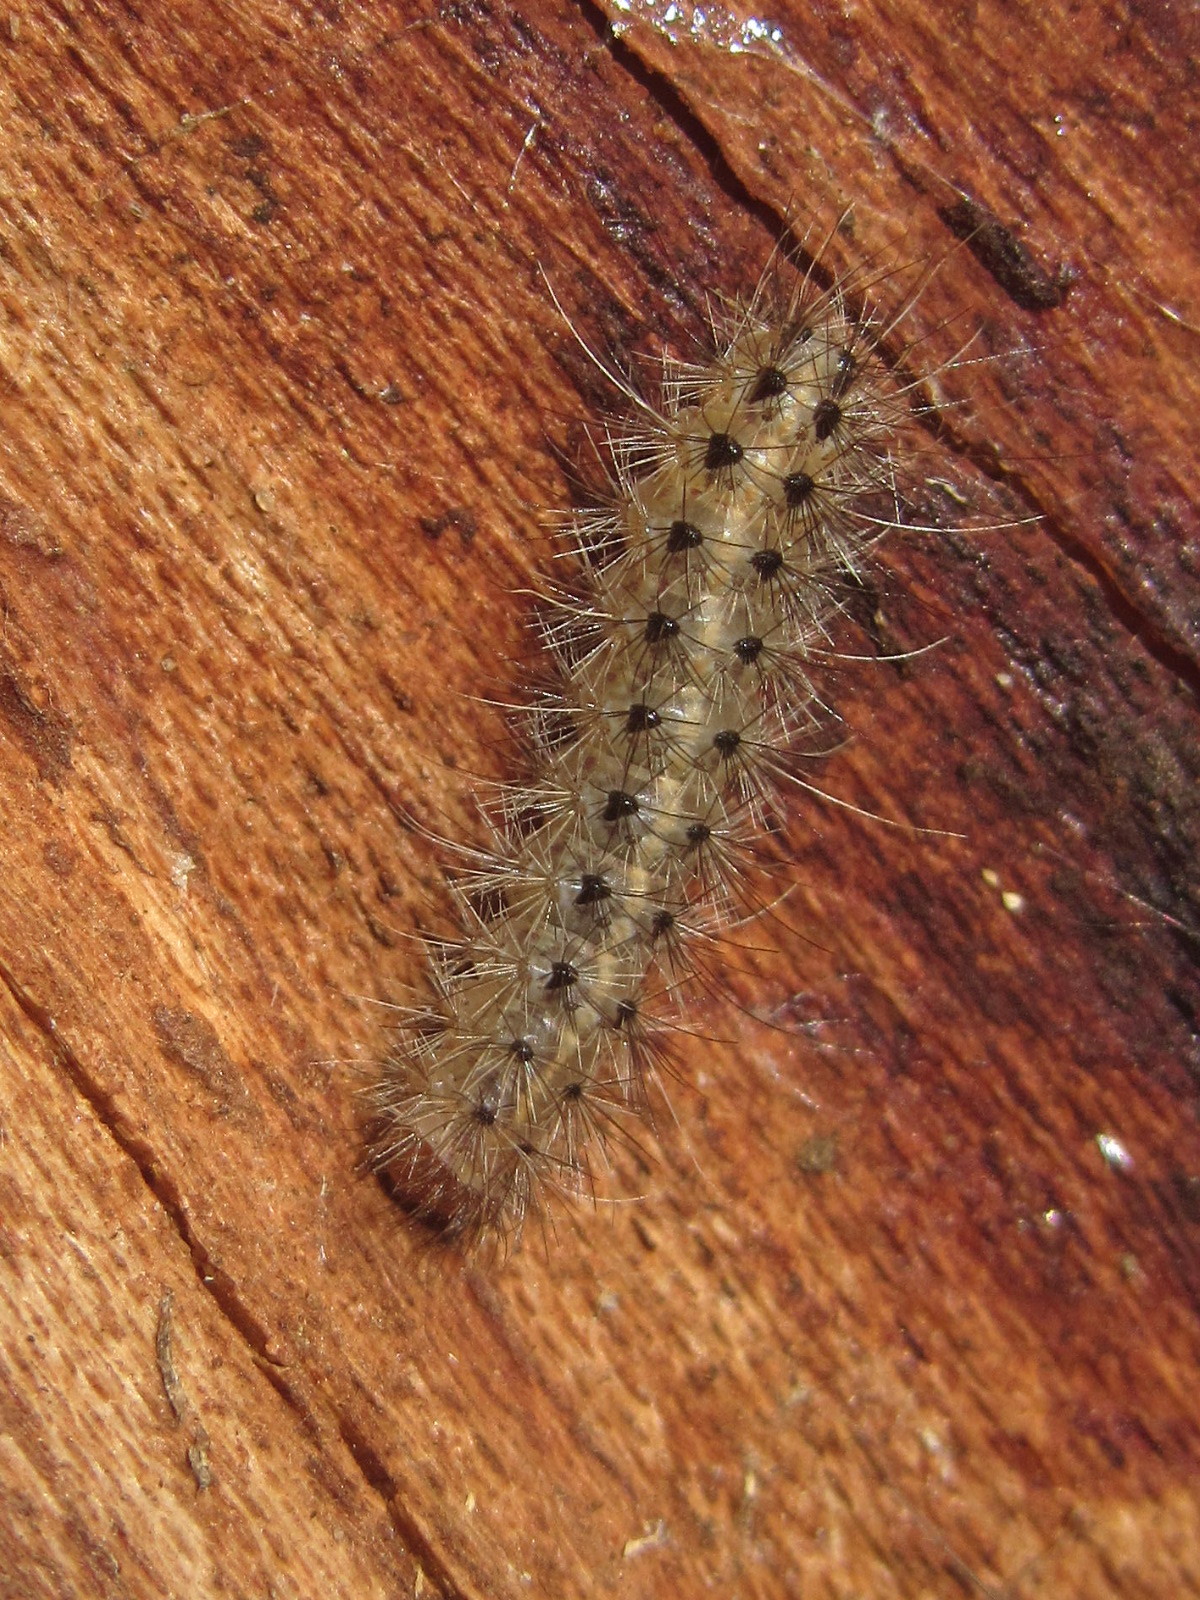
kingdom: Animalia
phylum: Arthropoda
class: Insecta
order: Lepidoptera
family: Erebidae
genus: Phragmatobia
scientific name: Phragmatobia fuliginosa
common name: Ruby tiger
